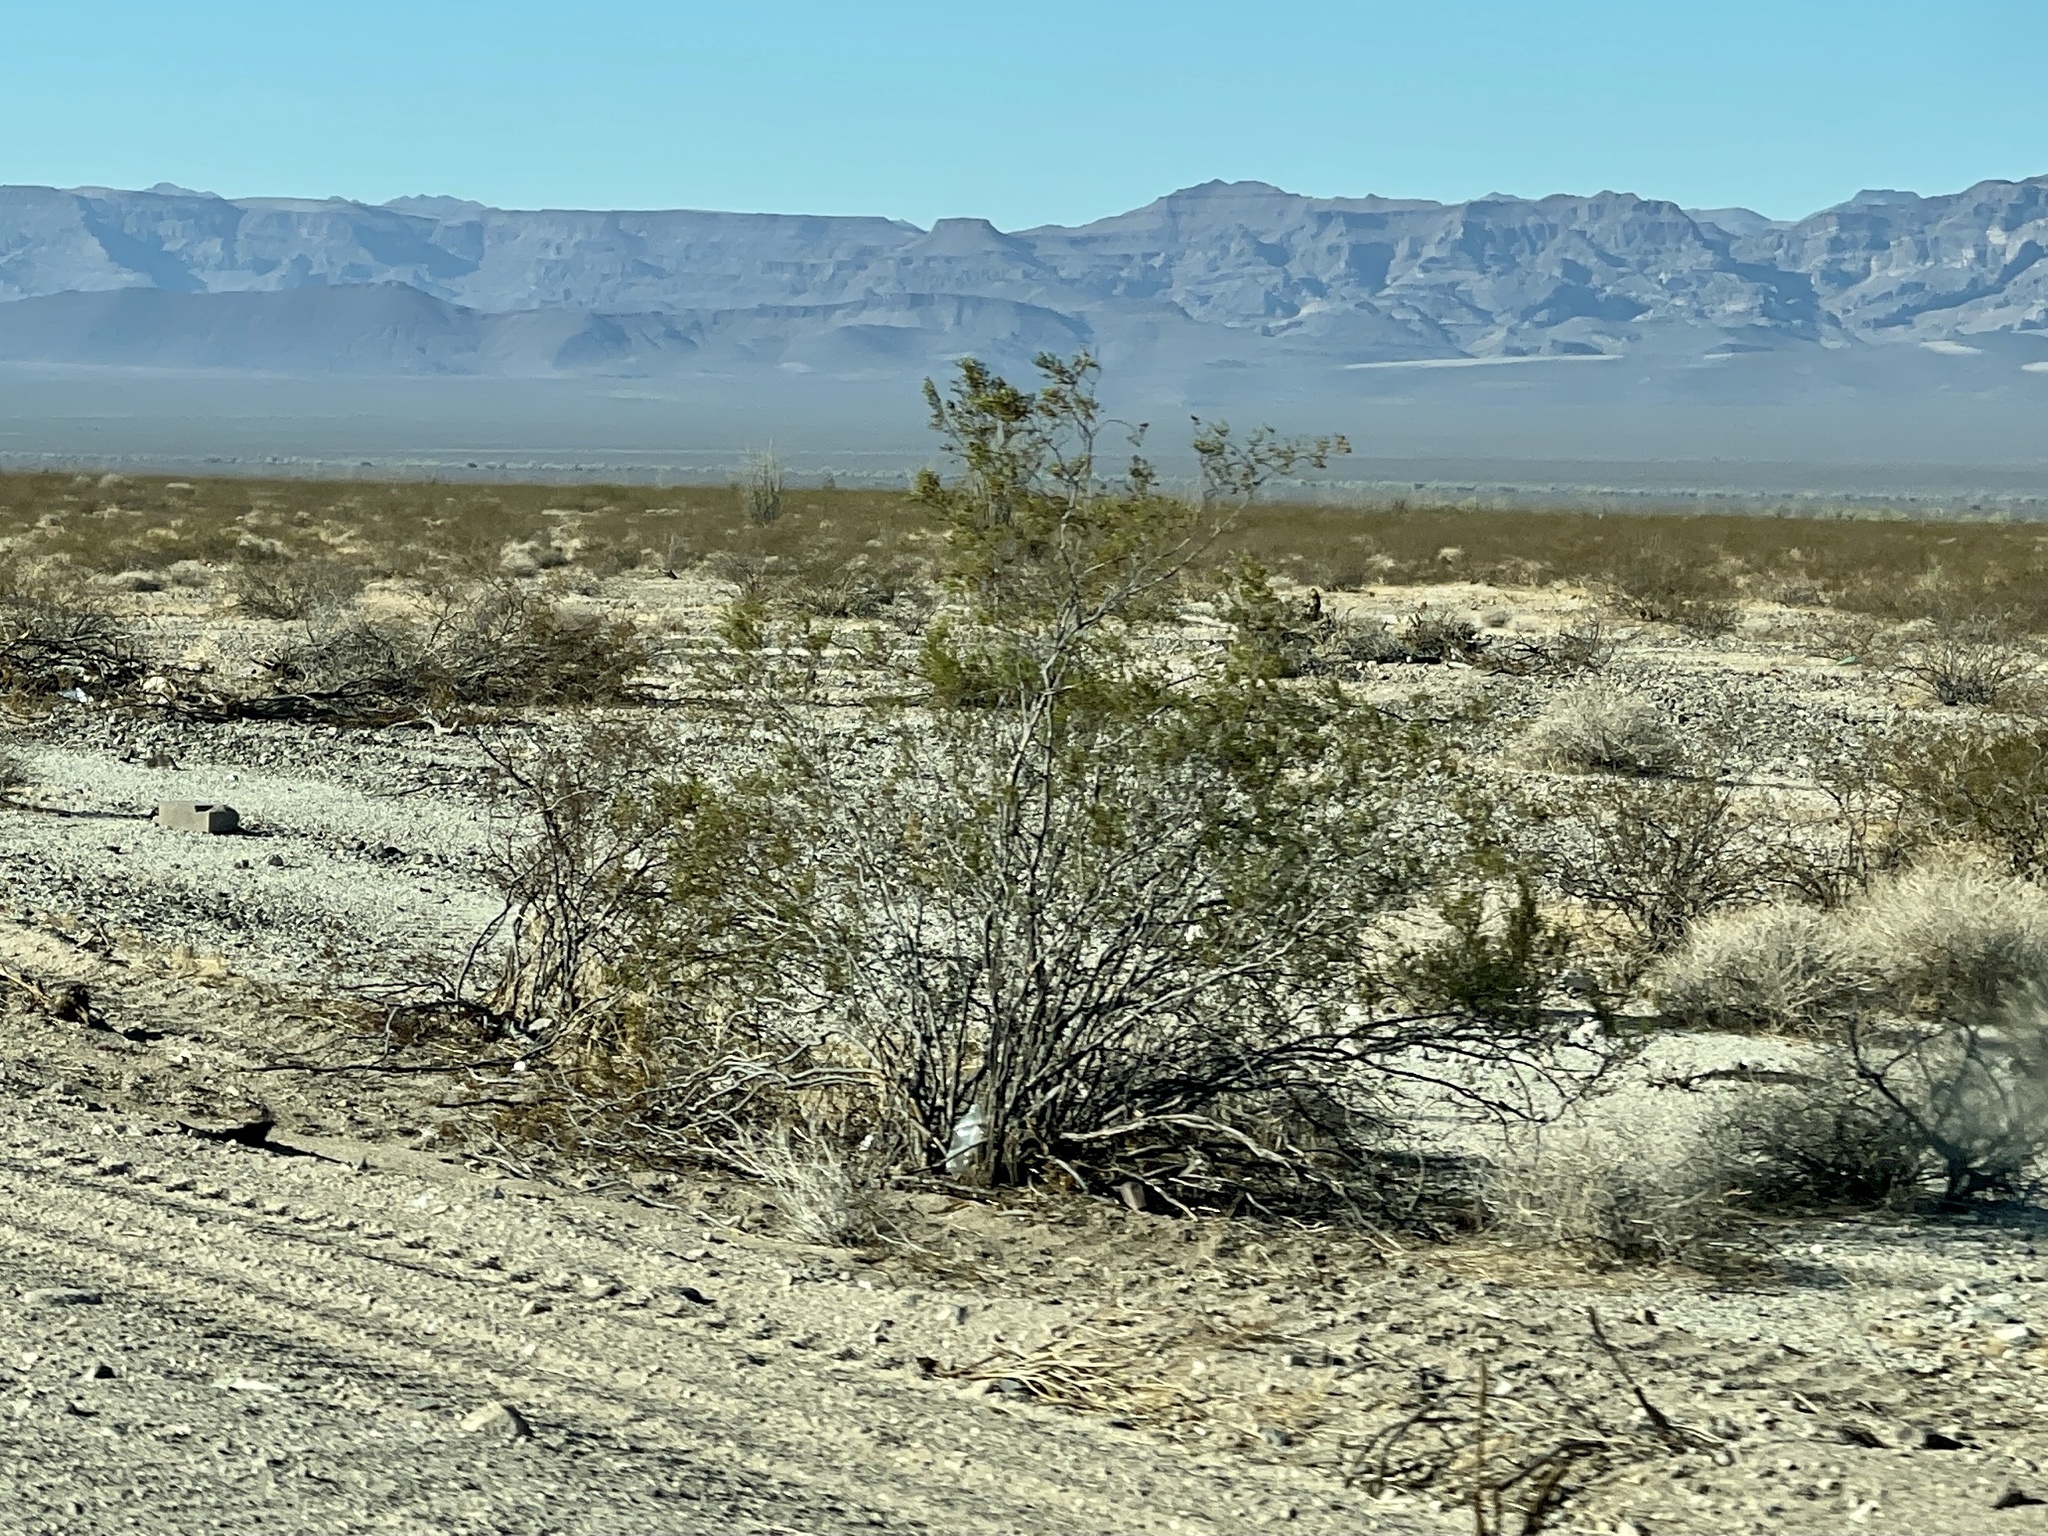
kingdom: Plantae
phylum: Tracheophyta
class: Magnoliopsida
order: Zygophyllales
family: Zygophyllaceae
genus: Larrea
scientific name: Larrea tridentata
